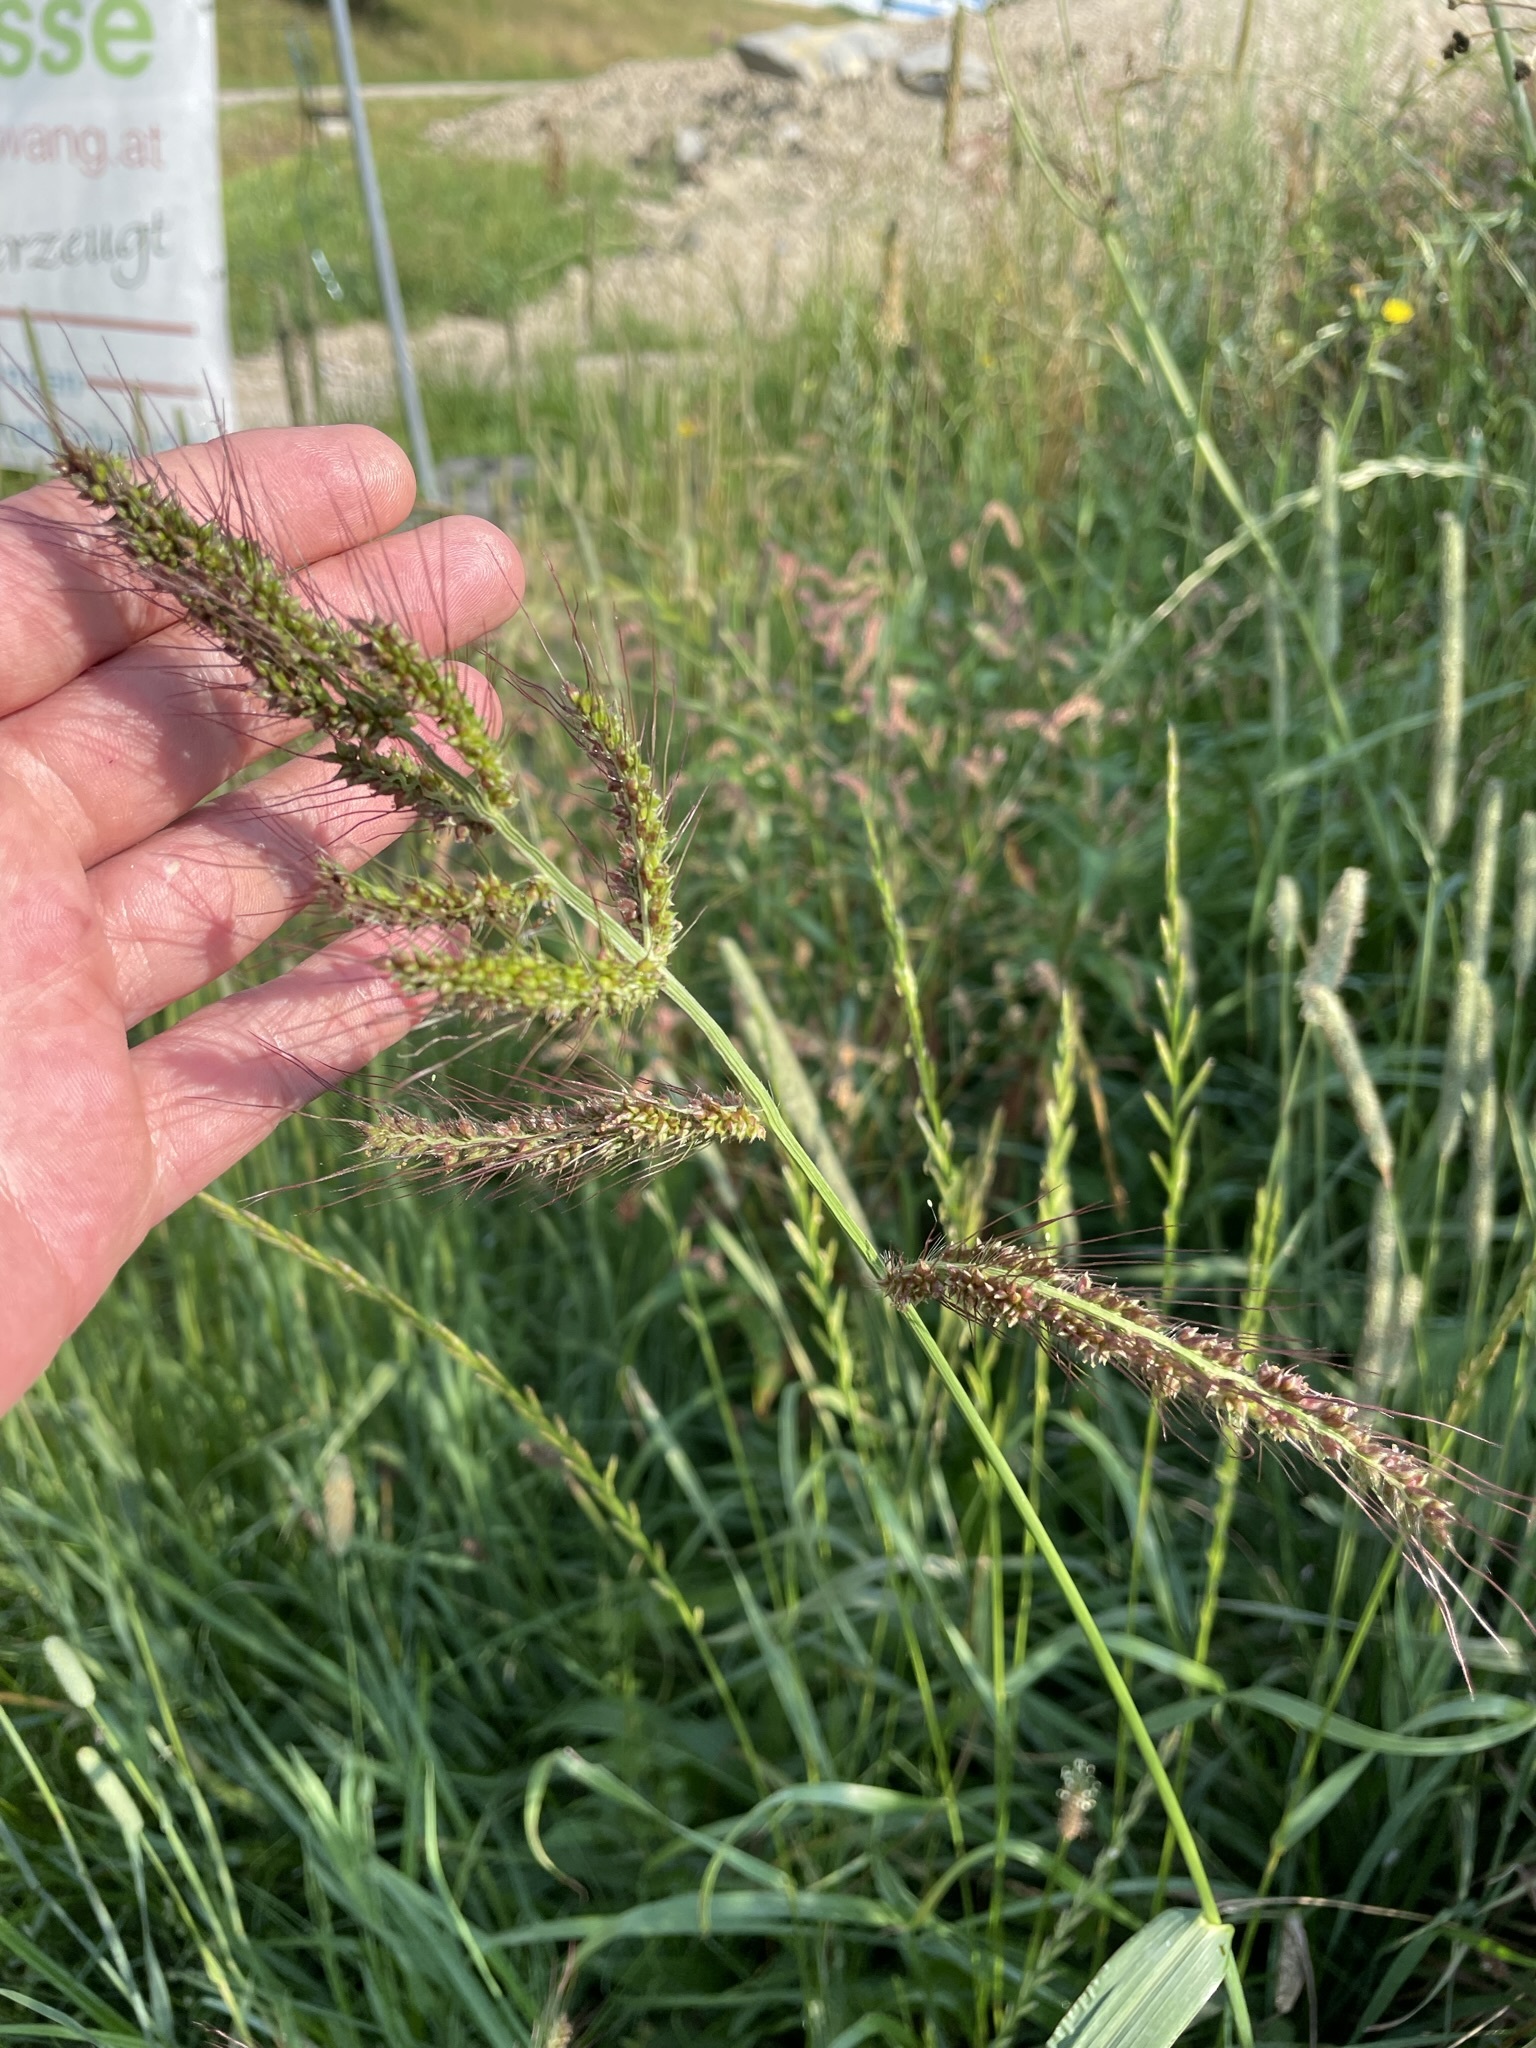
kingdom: Plantae
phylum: Tracheophyta
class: Liliopsida
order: Poales
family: Poaceae
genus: Echinochloa
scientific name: Echinochloa crus-galli
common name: Cockspur
